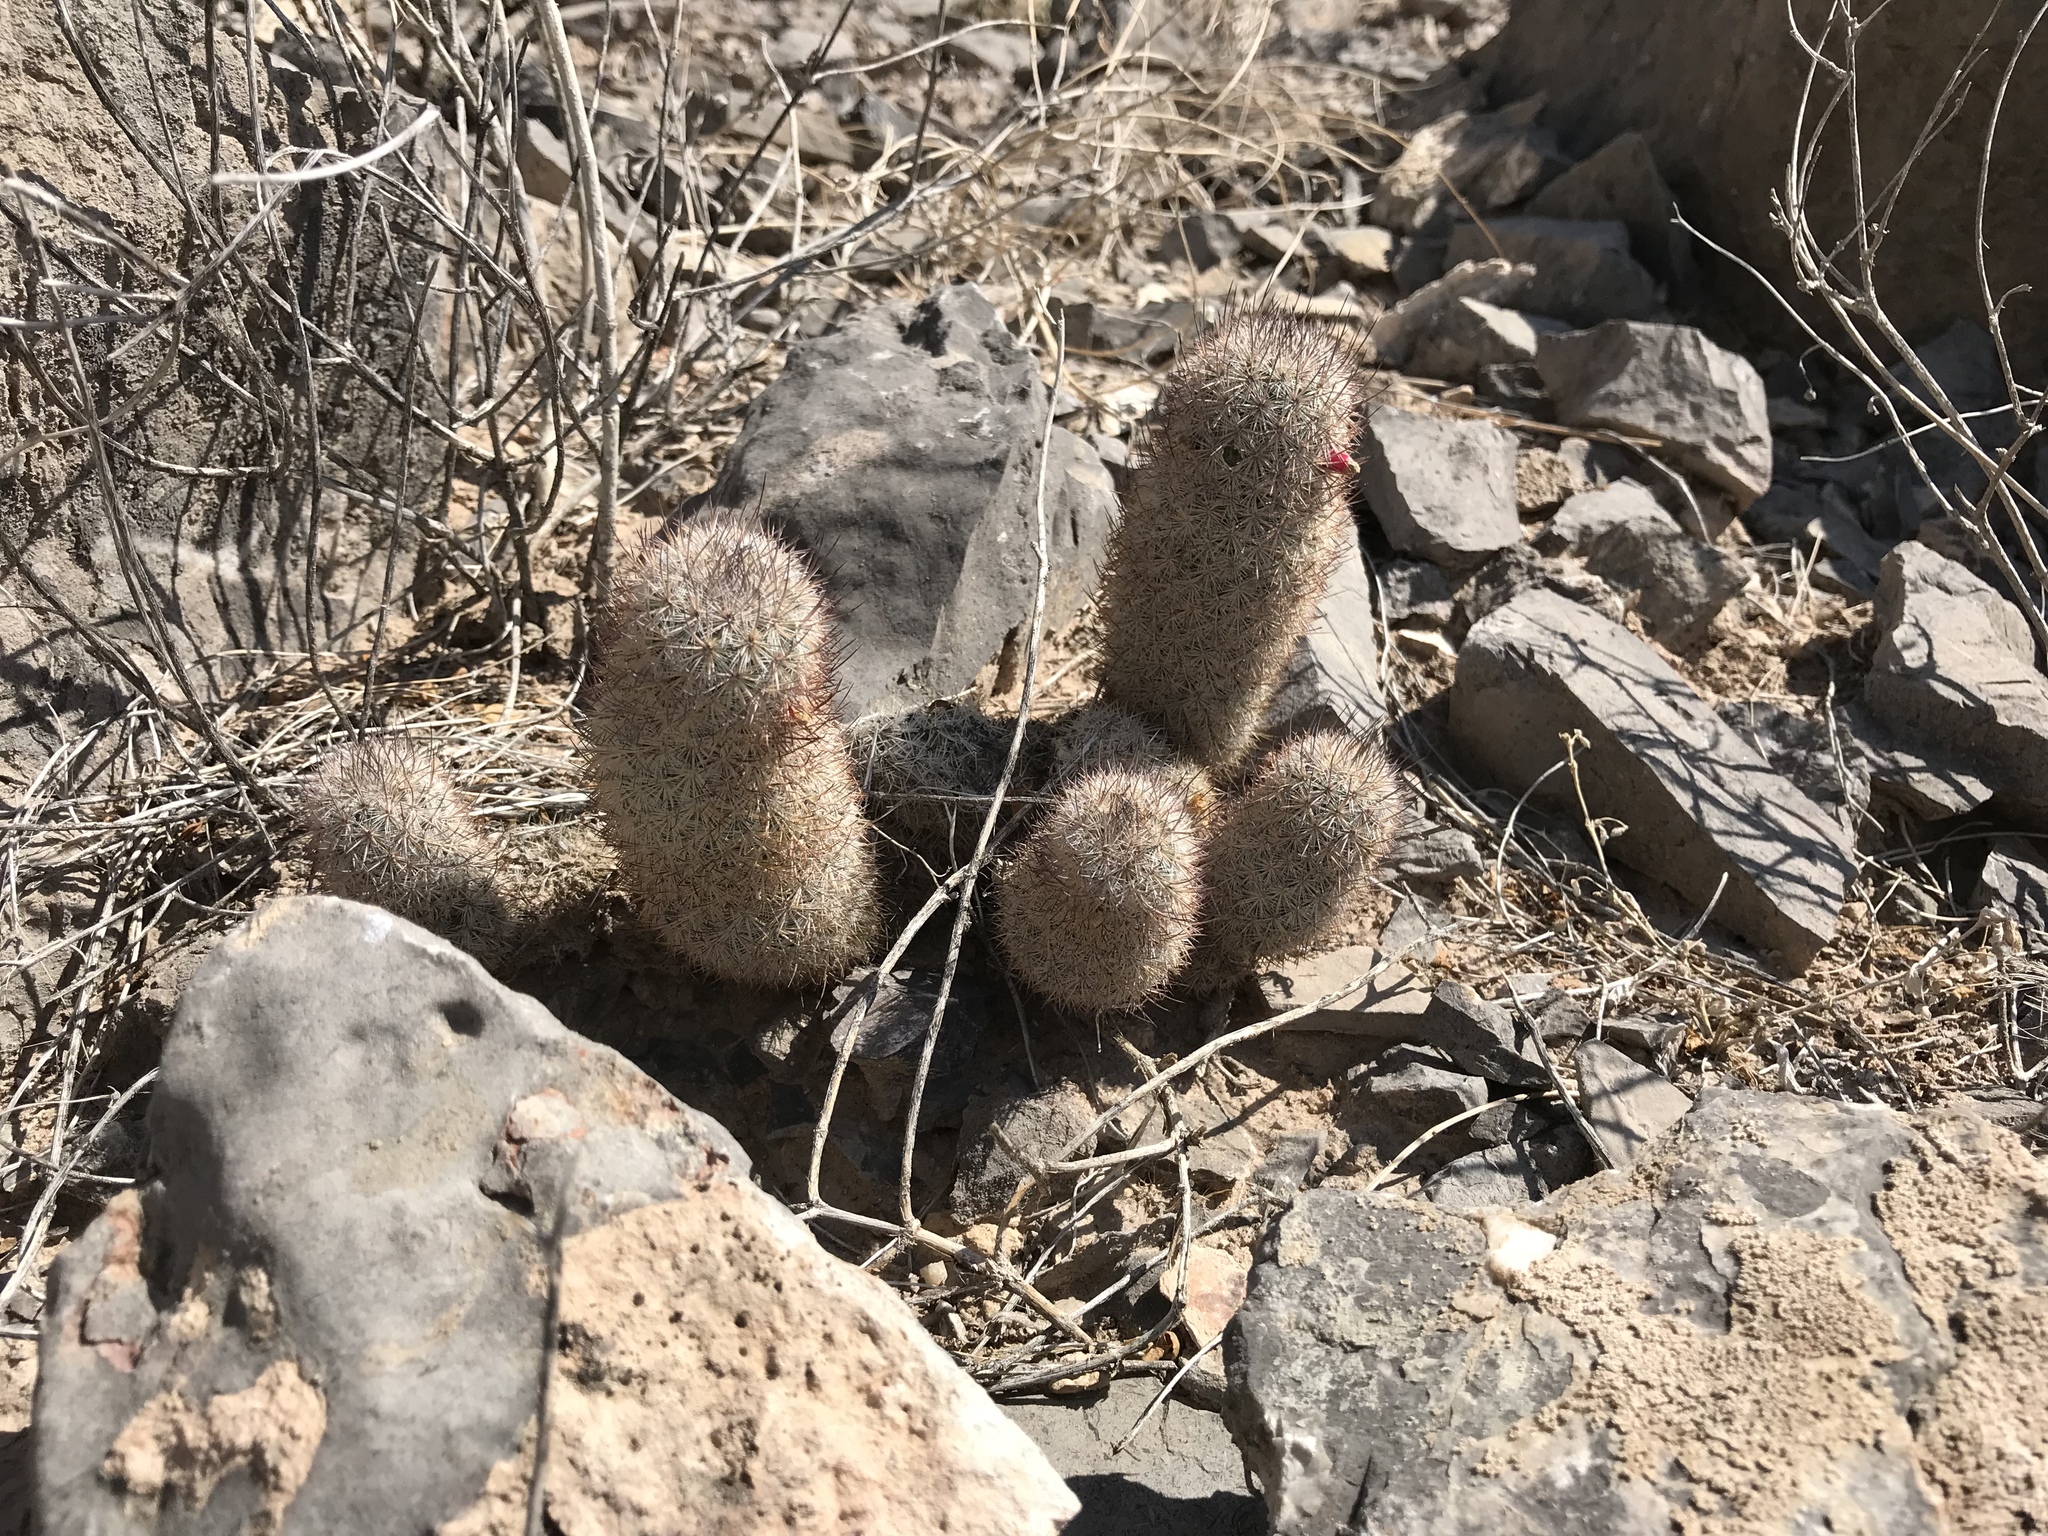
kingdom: Plantae
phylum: Tracheophyta
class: Magnoliopsida
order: Caryophyllales
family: Cactaceae
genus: Mammillaria
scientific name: Mammillaria pottsii
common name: Pott's nipple-cactus
